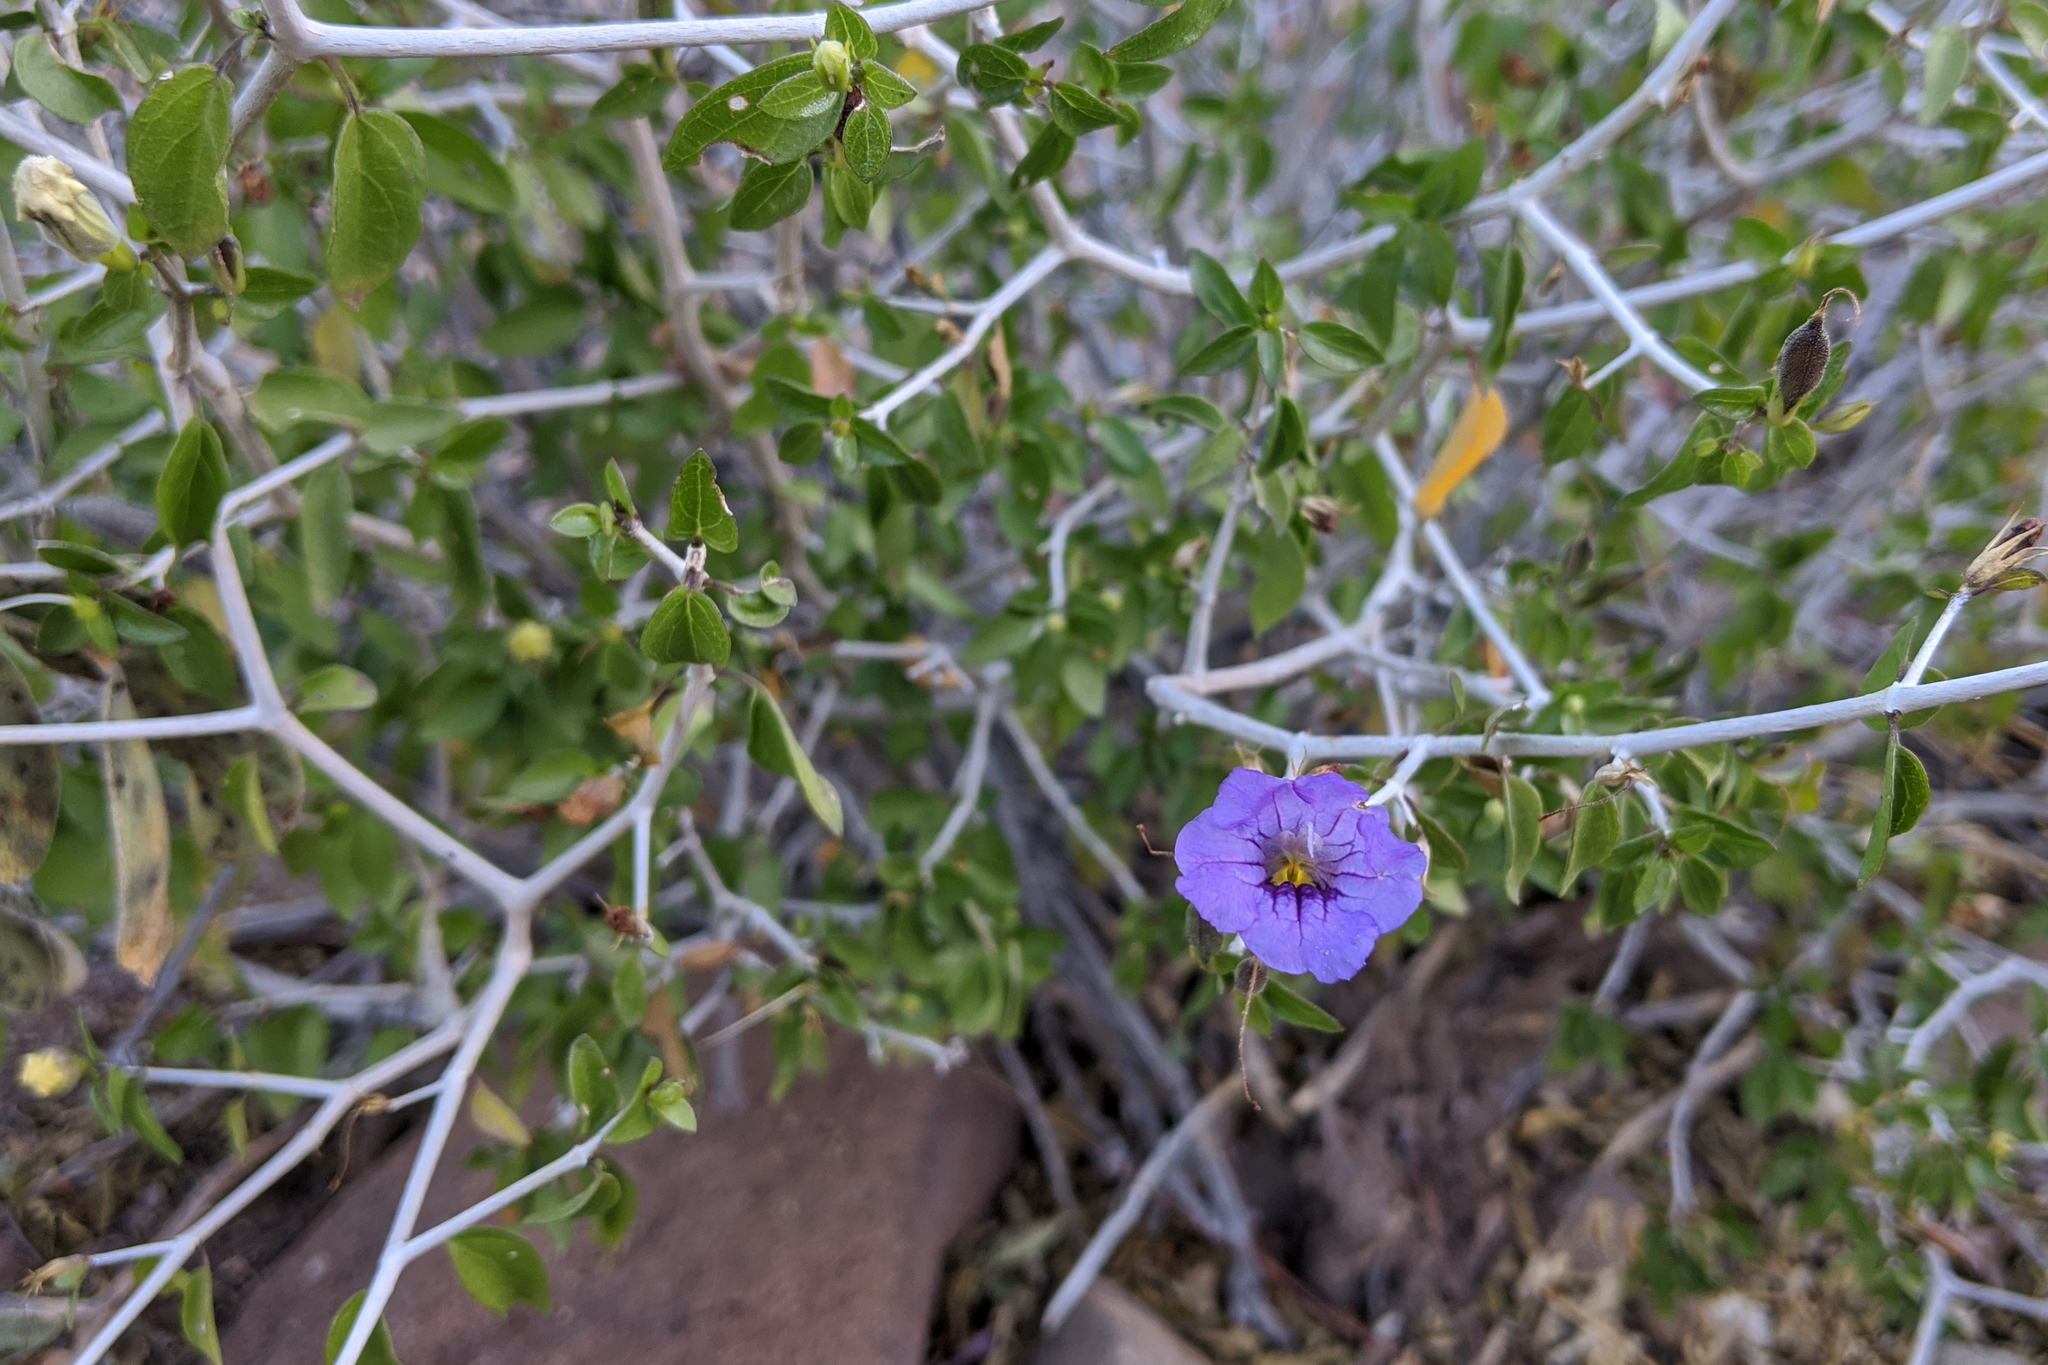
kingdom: Plantae
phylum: Tracheophyta
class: Magnoliopsida
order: Lamiales
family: Acanthaceae
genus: Ruellia
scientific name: Ruellia californica
